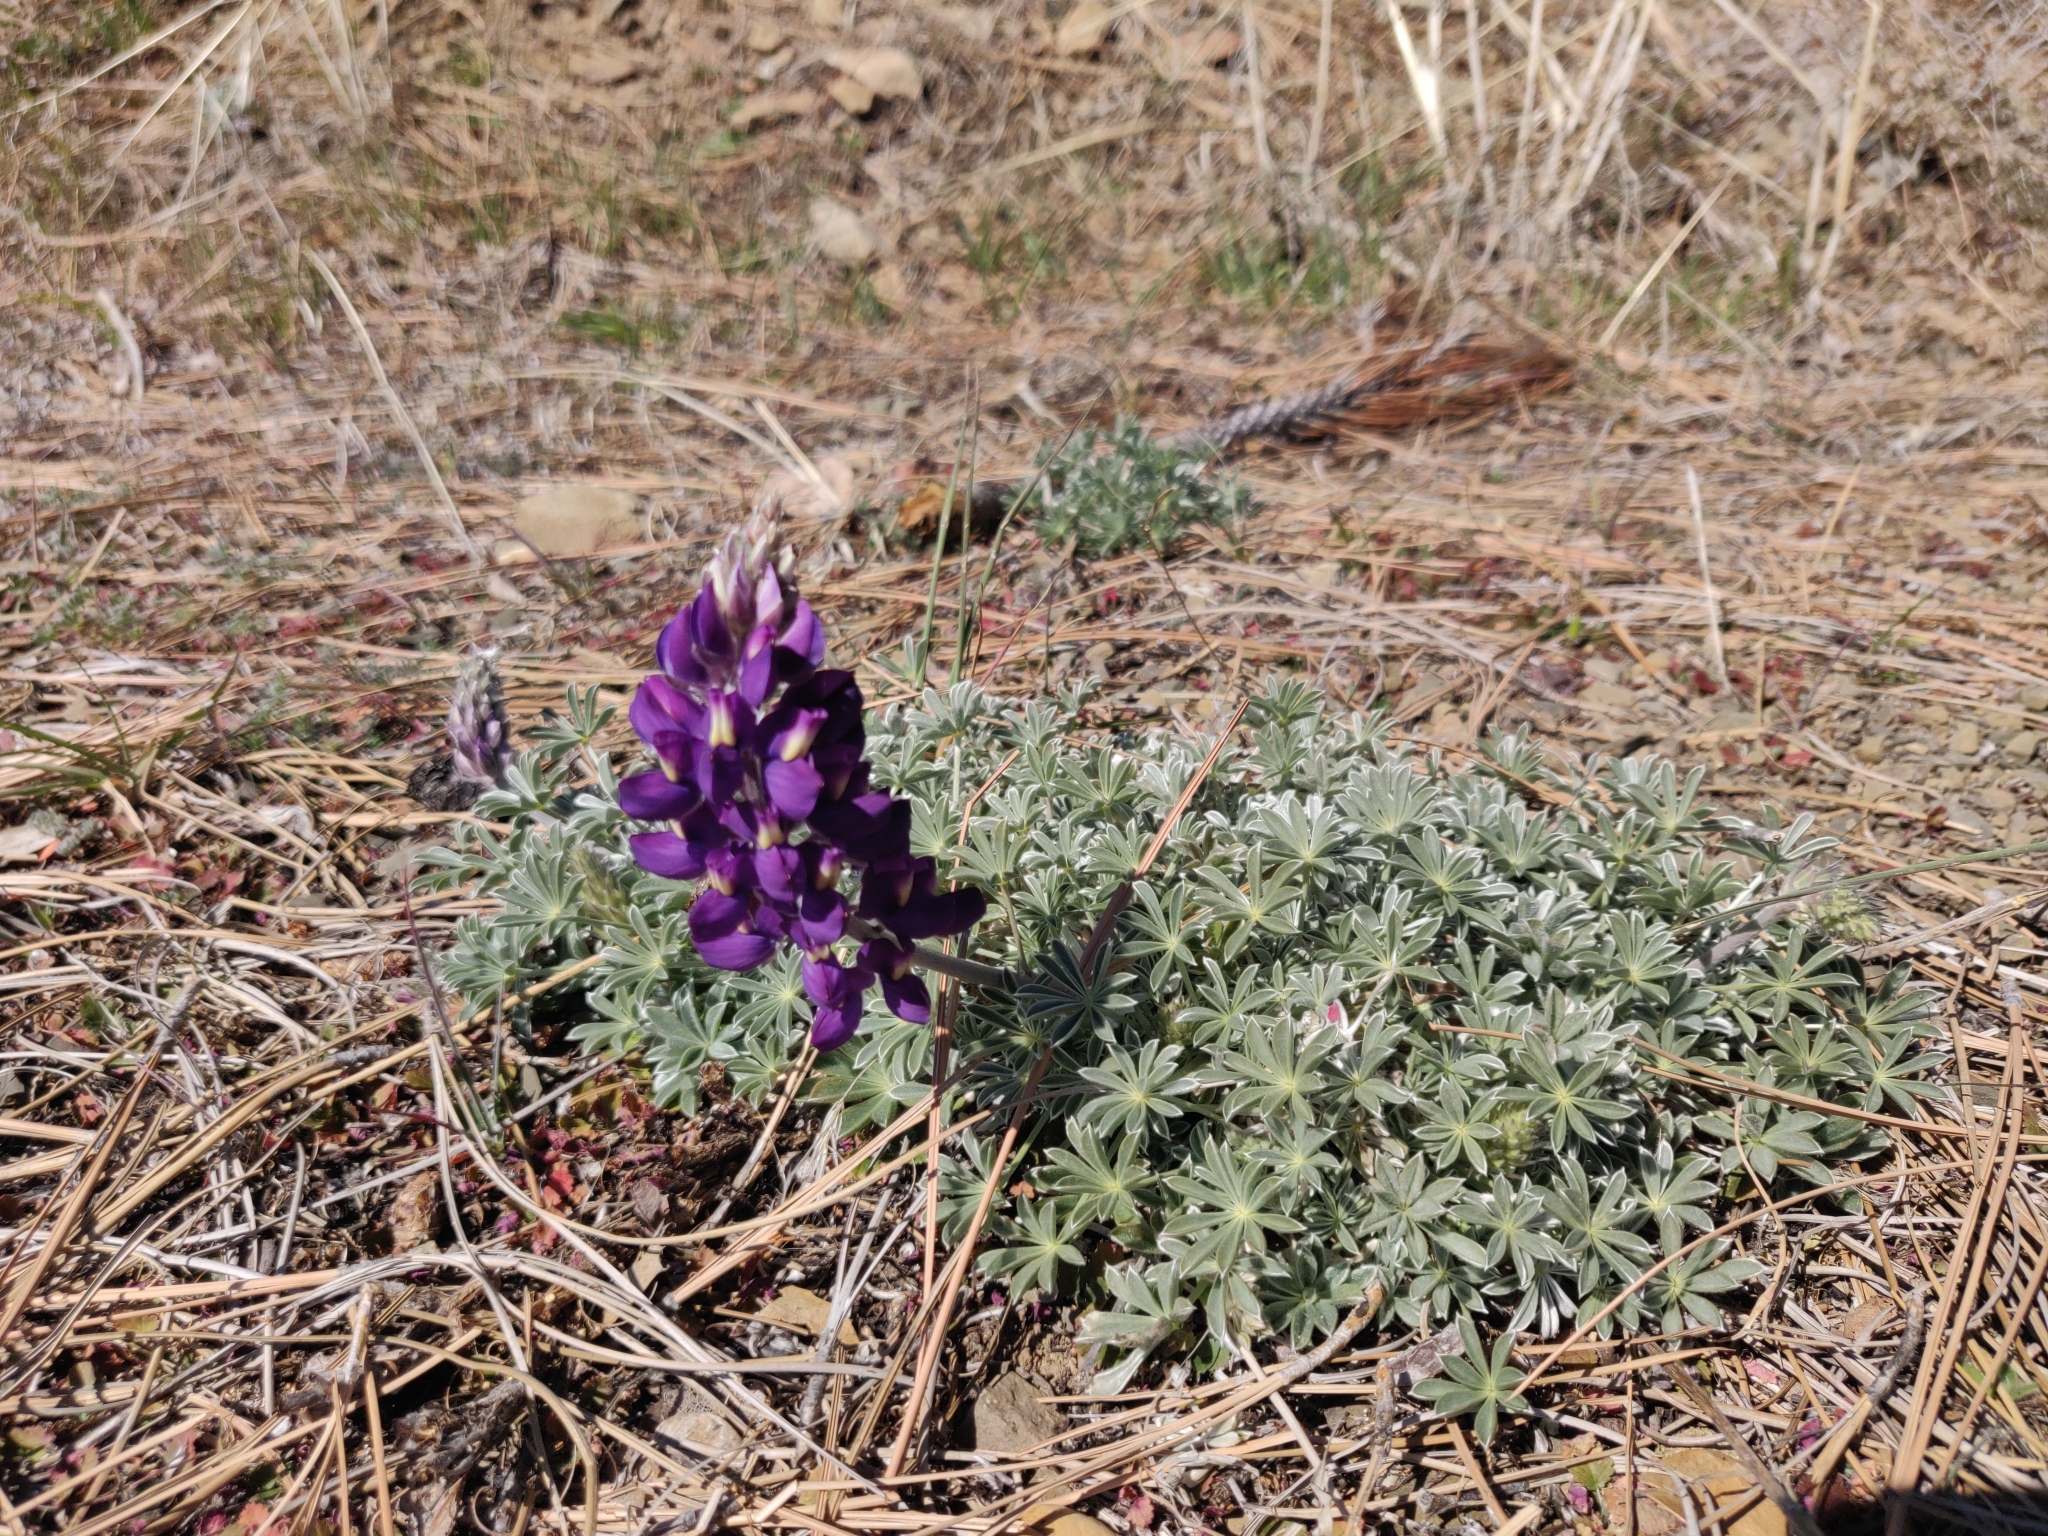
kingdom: Plantae
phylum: Tracheophyta
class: Magnoliopsida
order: Fabales
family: Fabaceae
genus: Lupinus
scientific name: Lupinus albifrons
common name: Foothill lupine
